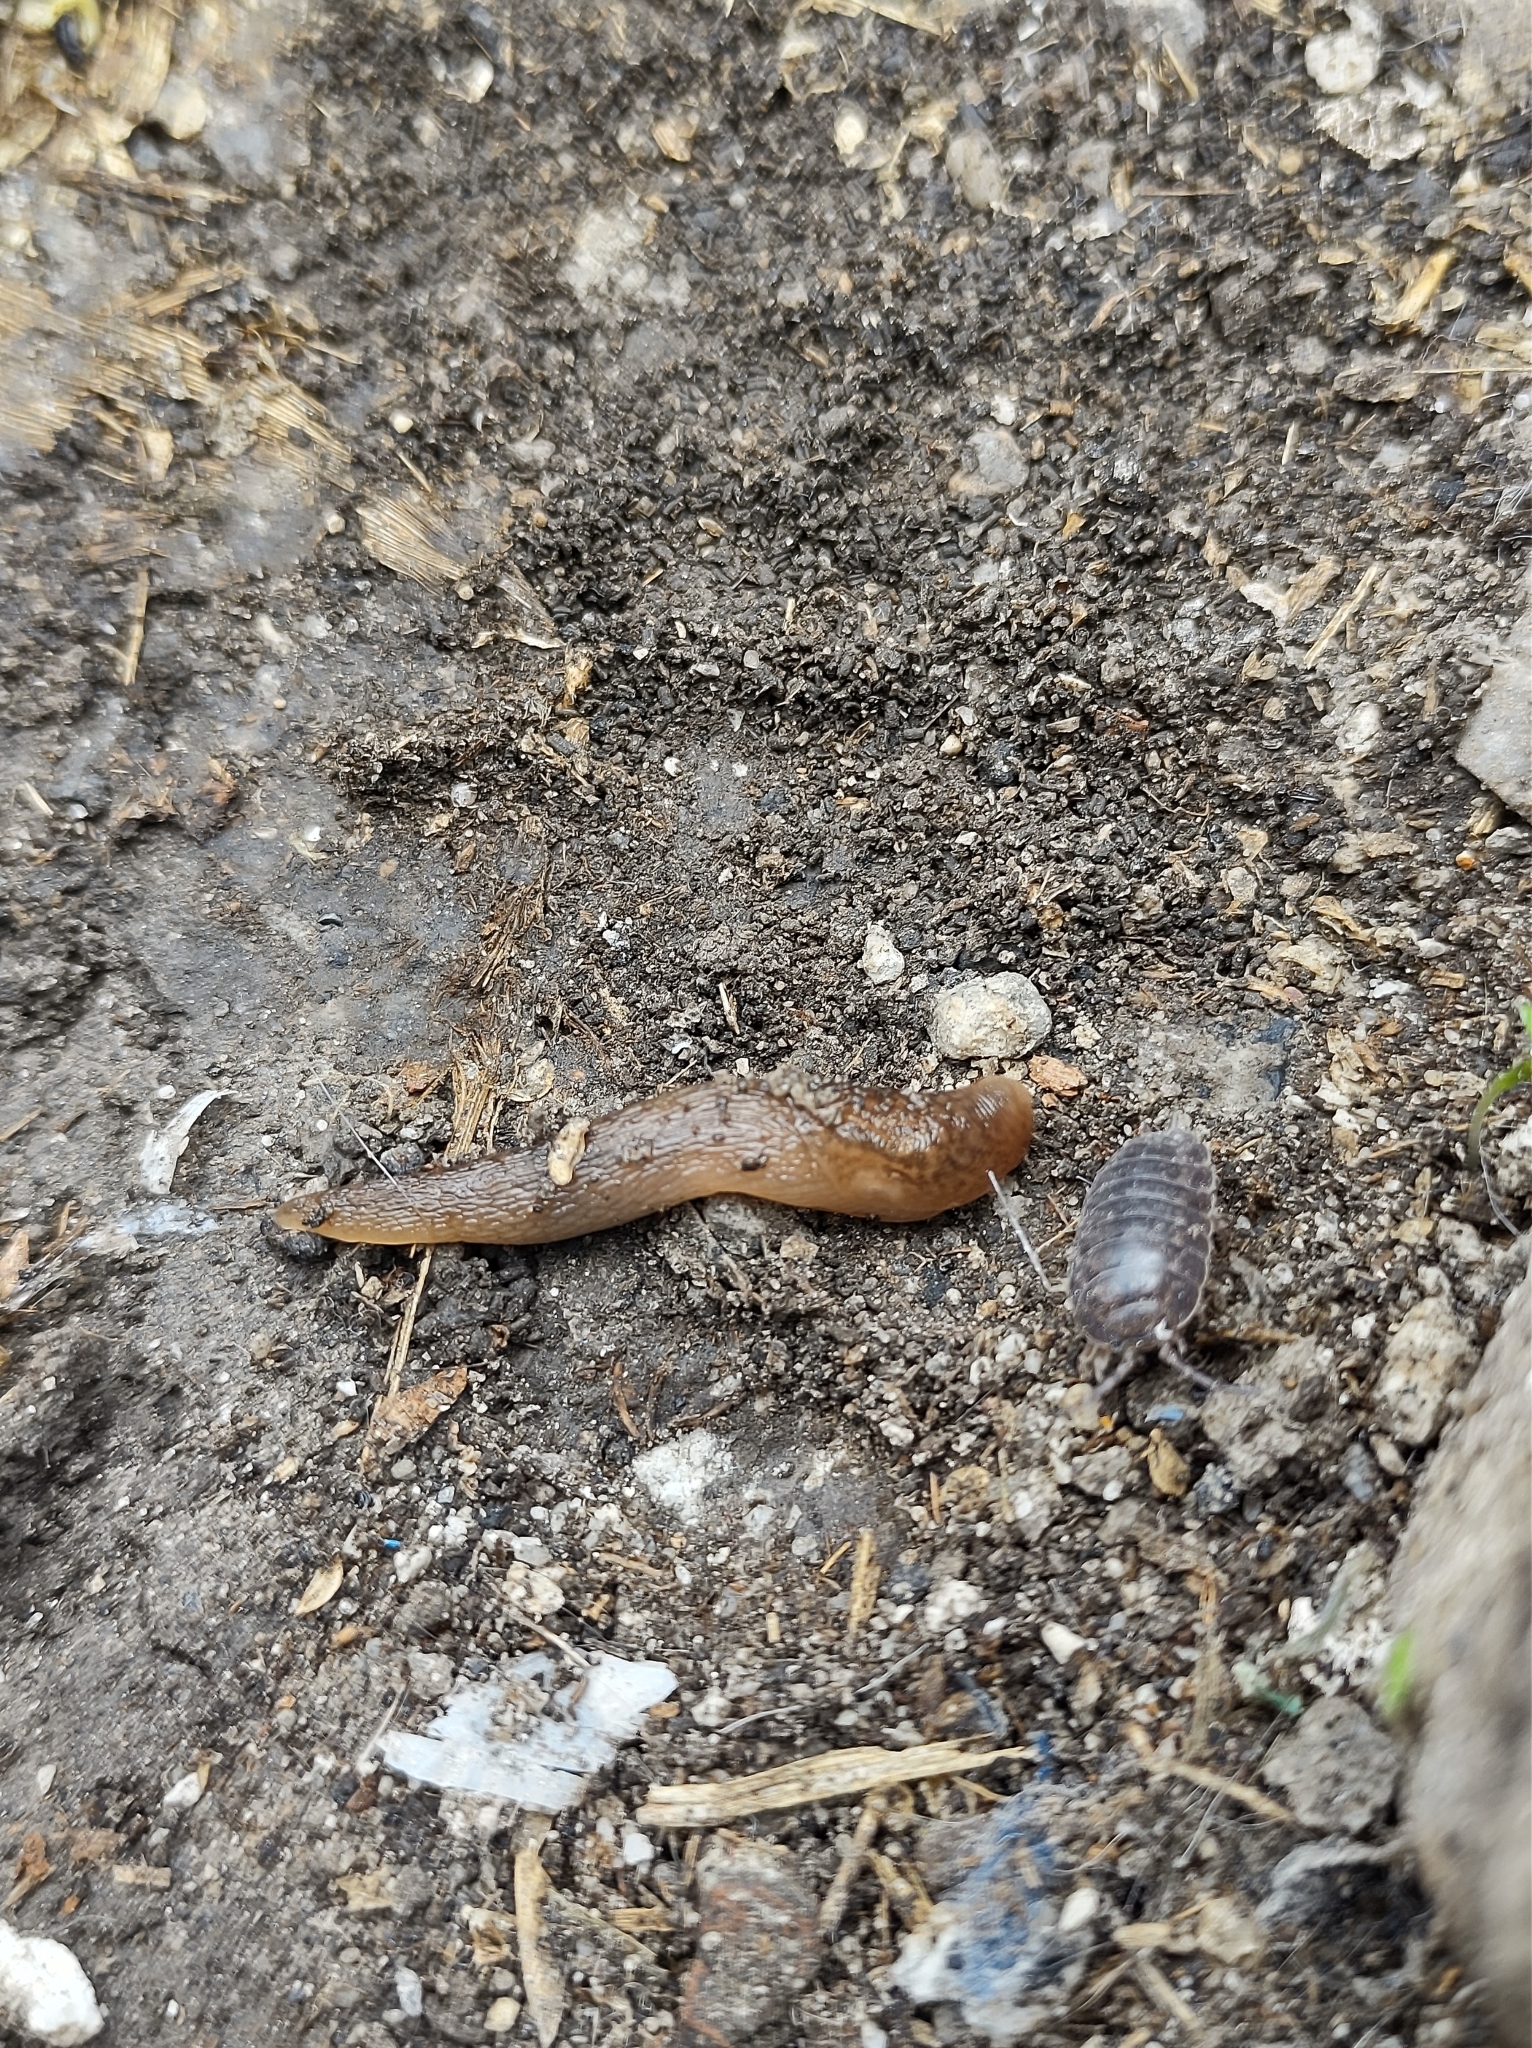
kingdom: Animalia
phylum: Arthropoda
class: Malacostraca
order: Isopoda
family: Porcellionidae
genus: Porcellio
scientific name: Porcellio laevis
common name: Swift woodlouse
